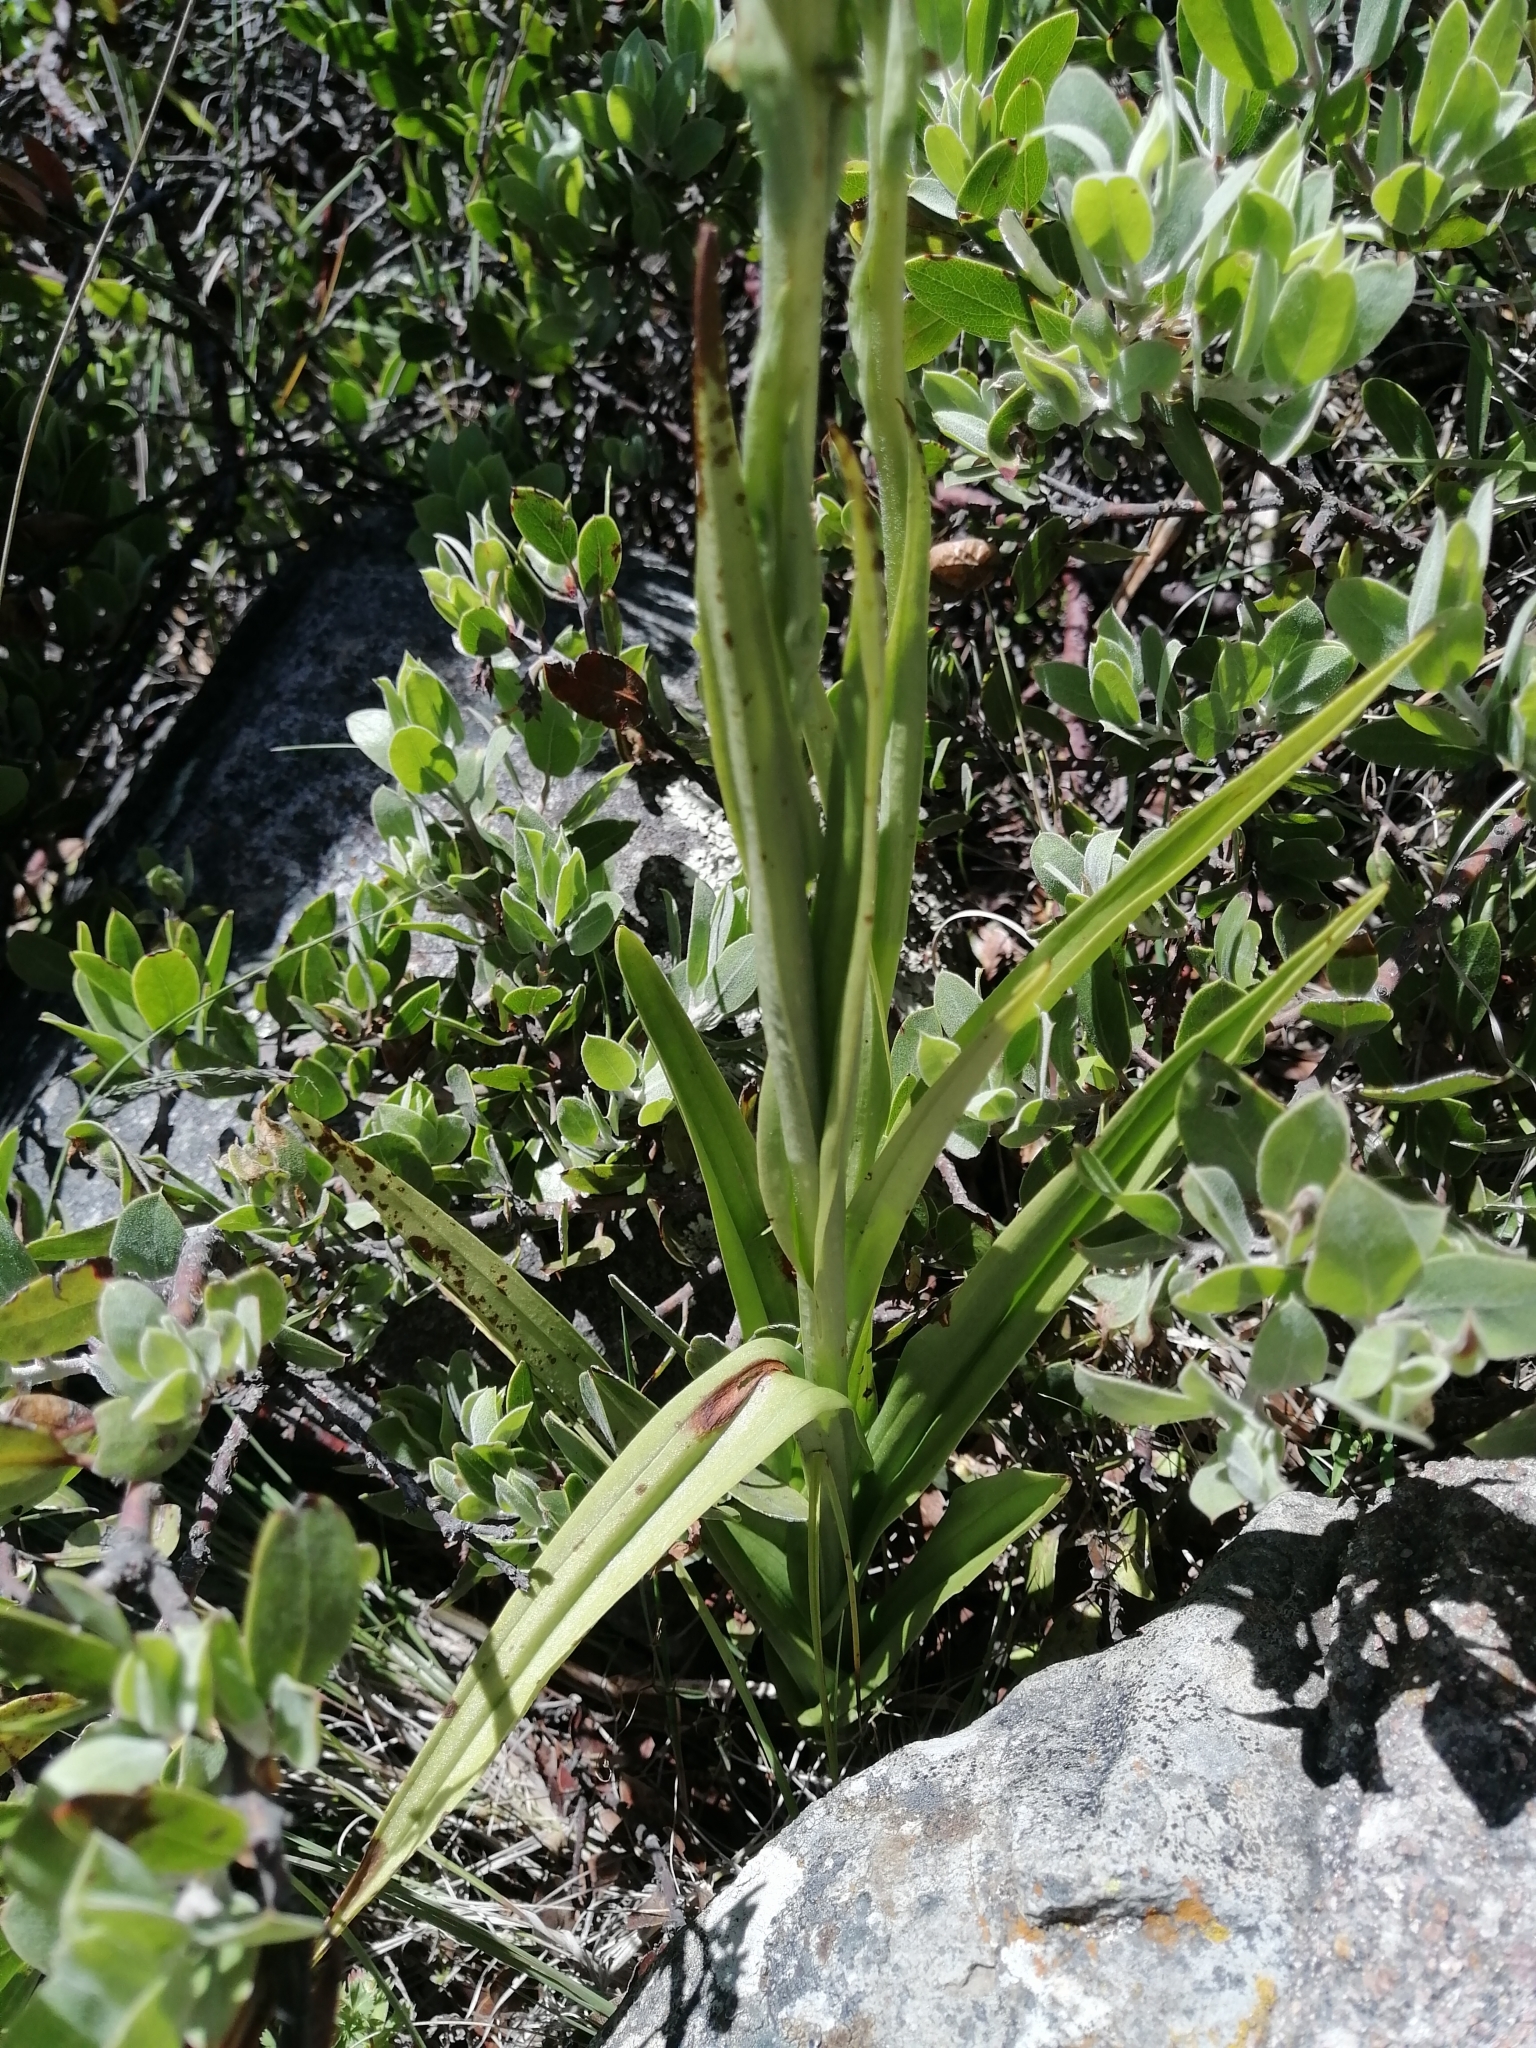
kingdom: Plantae
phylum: Tracheophyta
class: Liliopsida
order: Asparagales
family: Orchidaceae
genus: Galeottiella
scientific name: Galeottiella sarcoglossa
